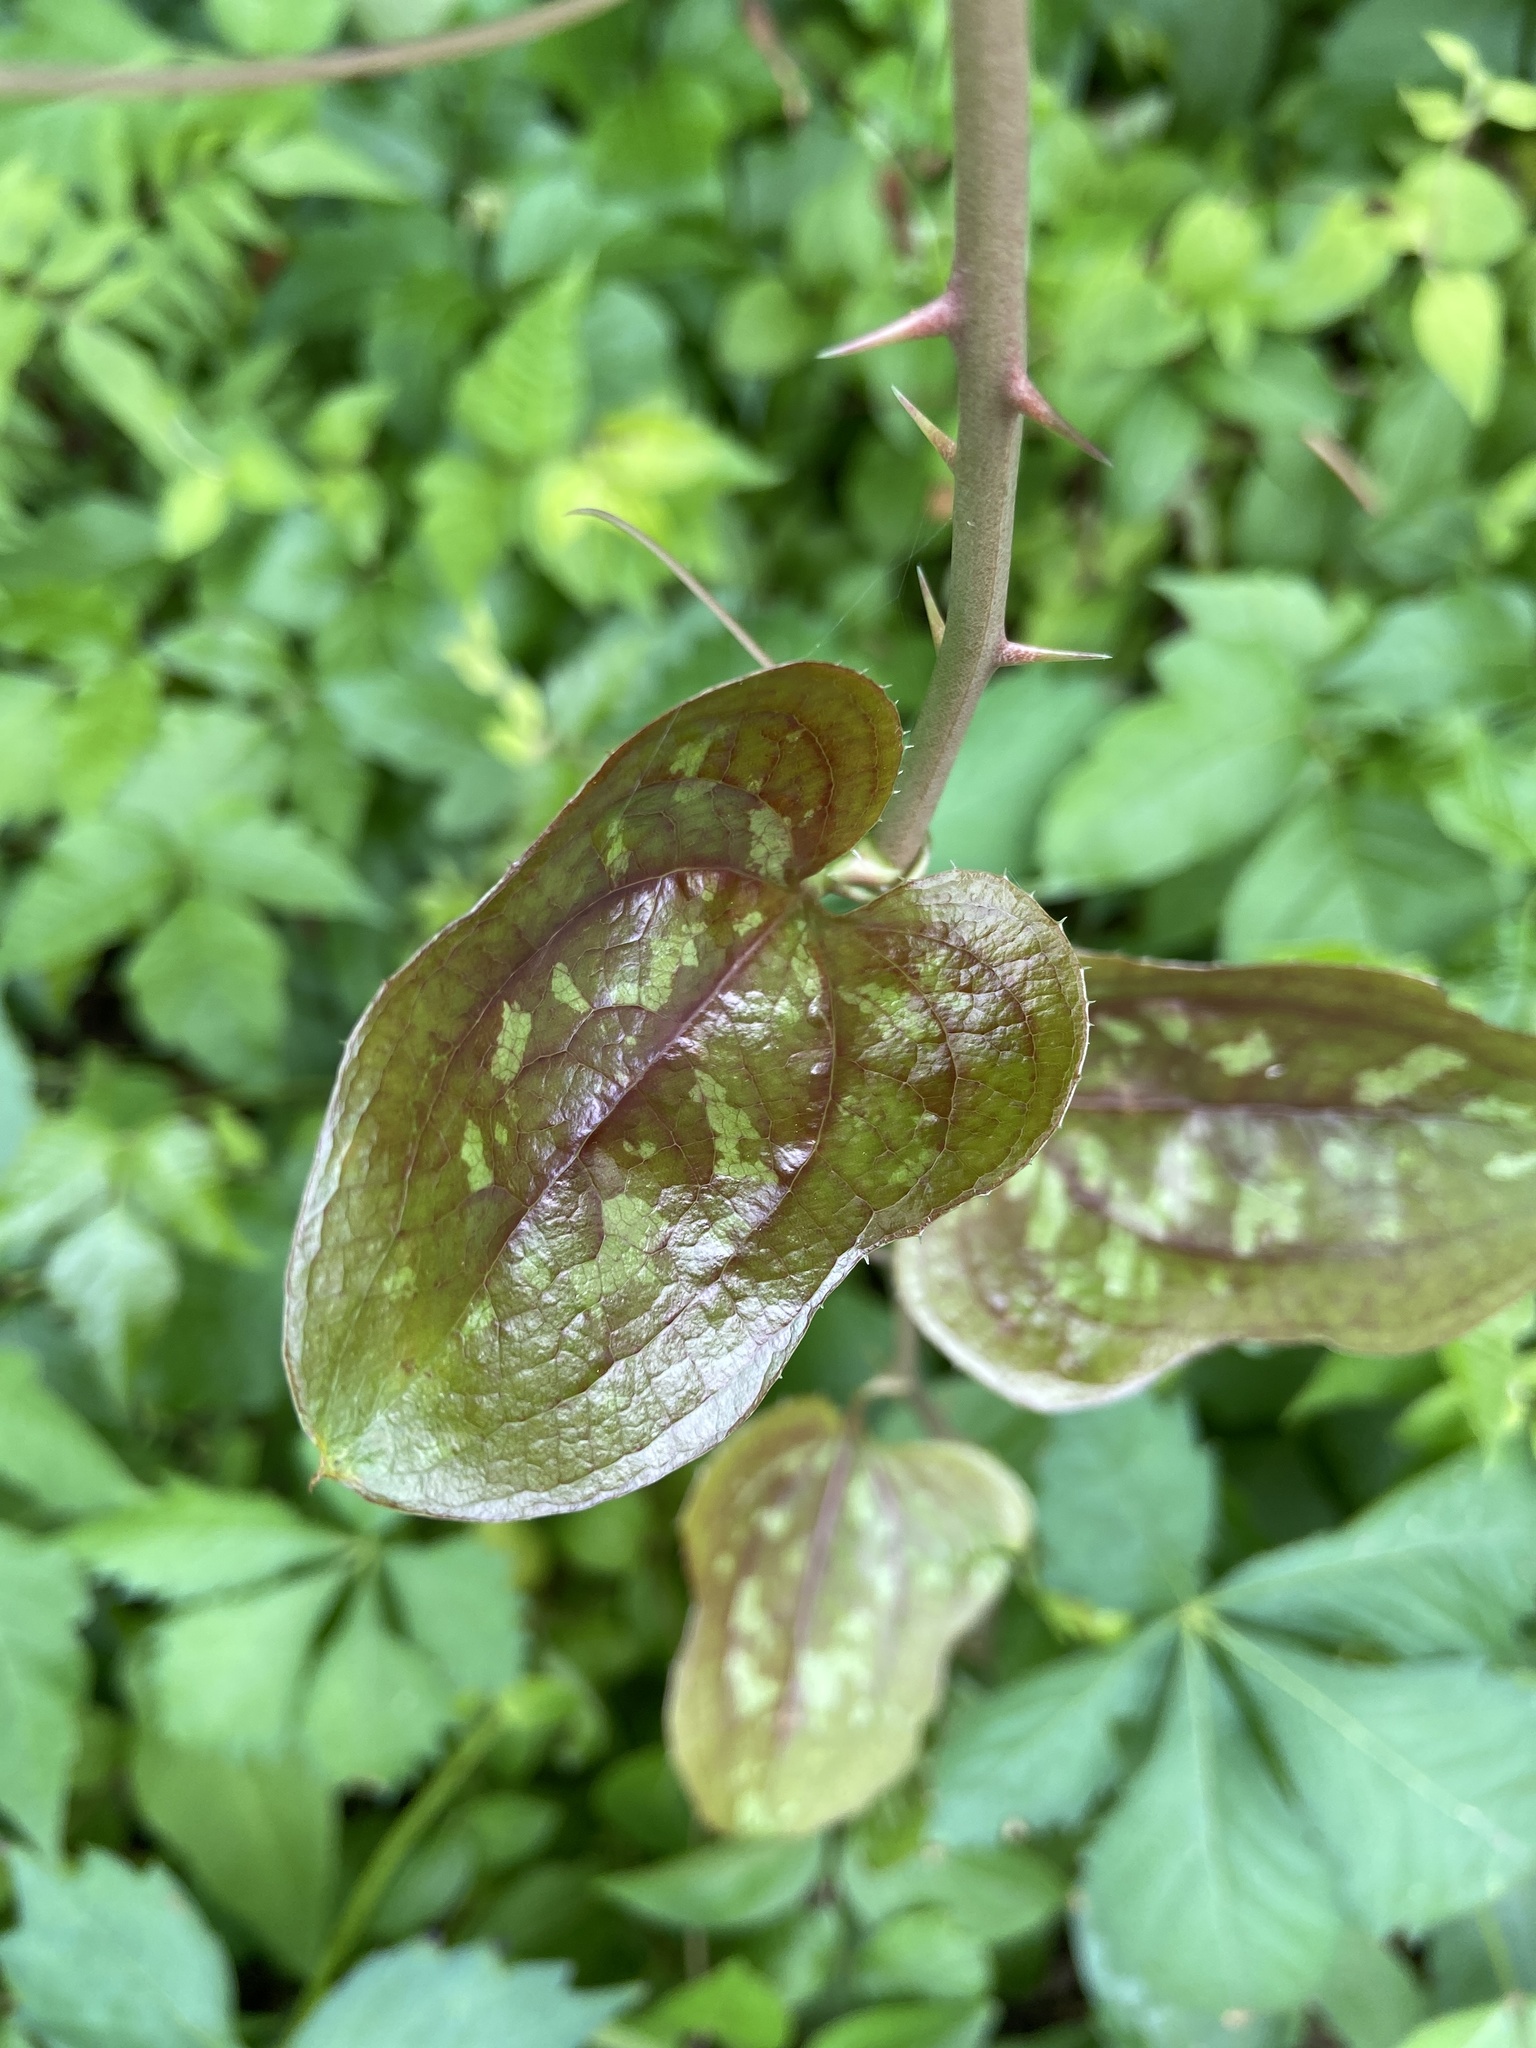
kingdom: Plantae
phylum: Tracheophyta
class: Liliopsida
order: Liliales
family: Smilacaceae
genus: Smilax
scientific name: Smilax bona-nox
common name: Catbrier
